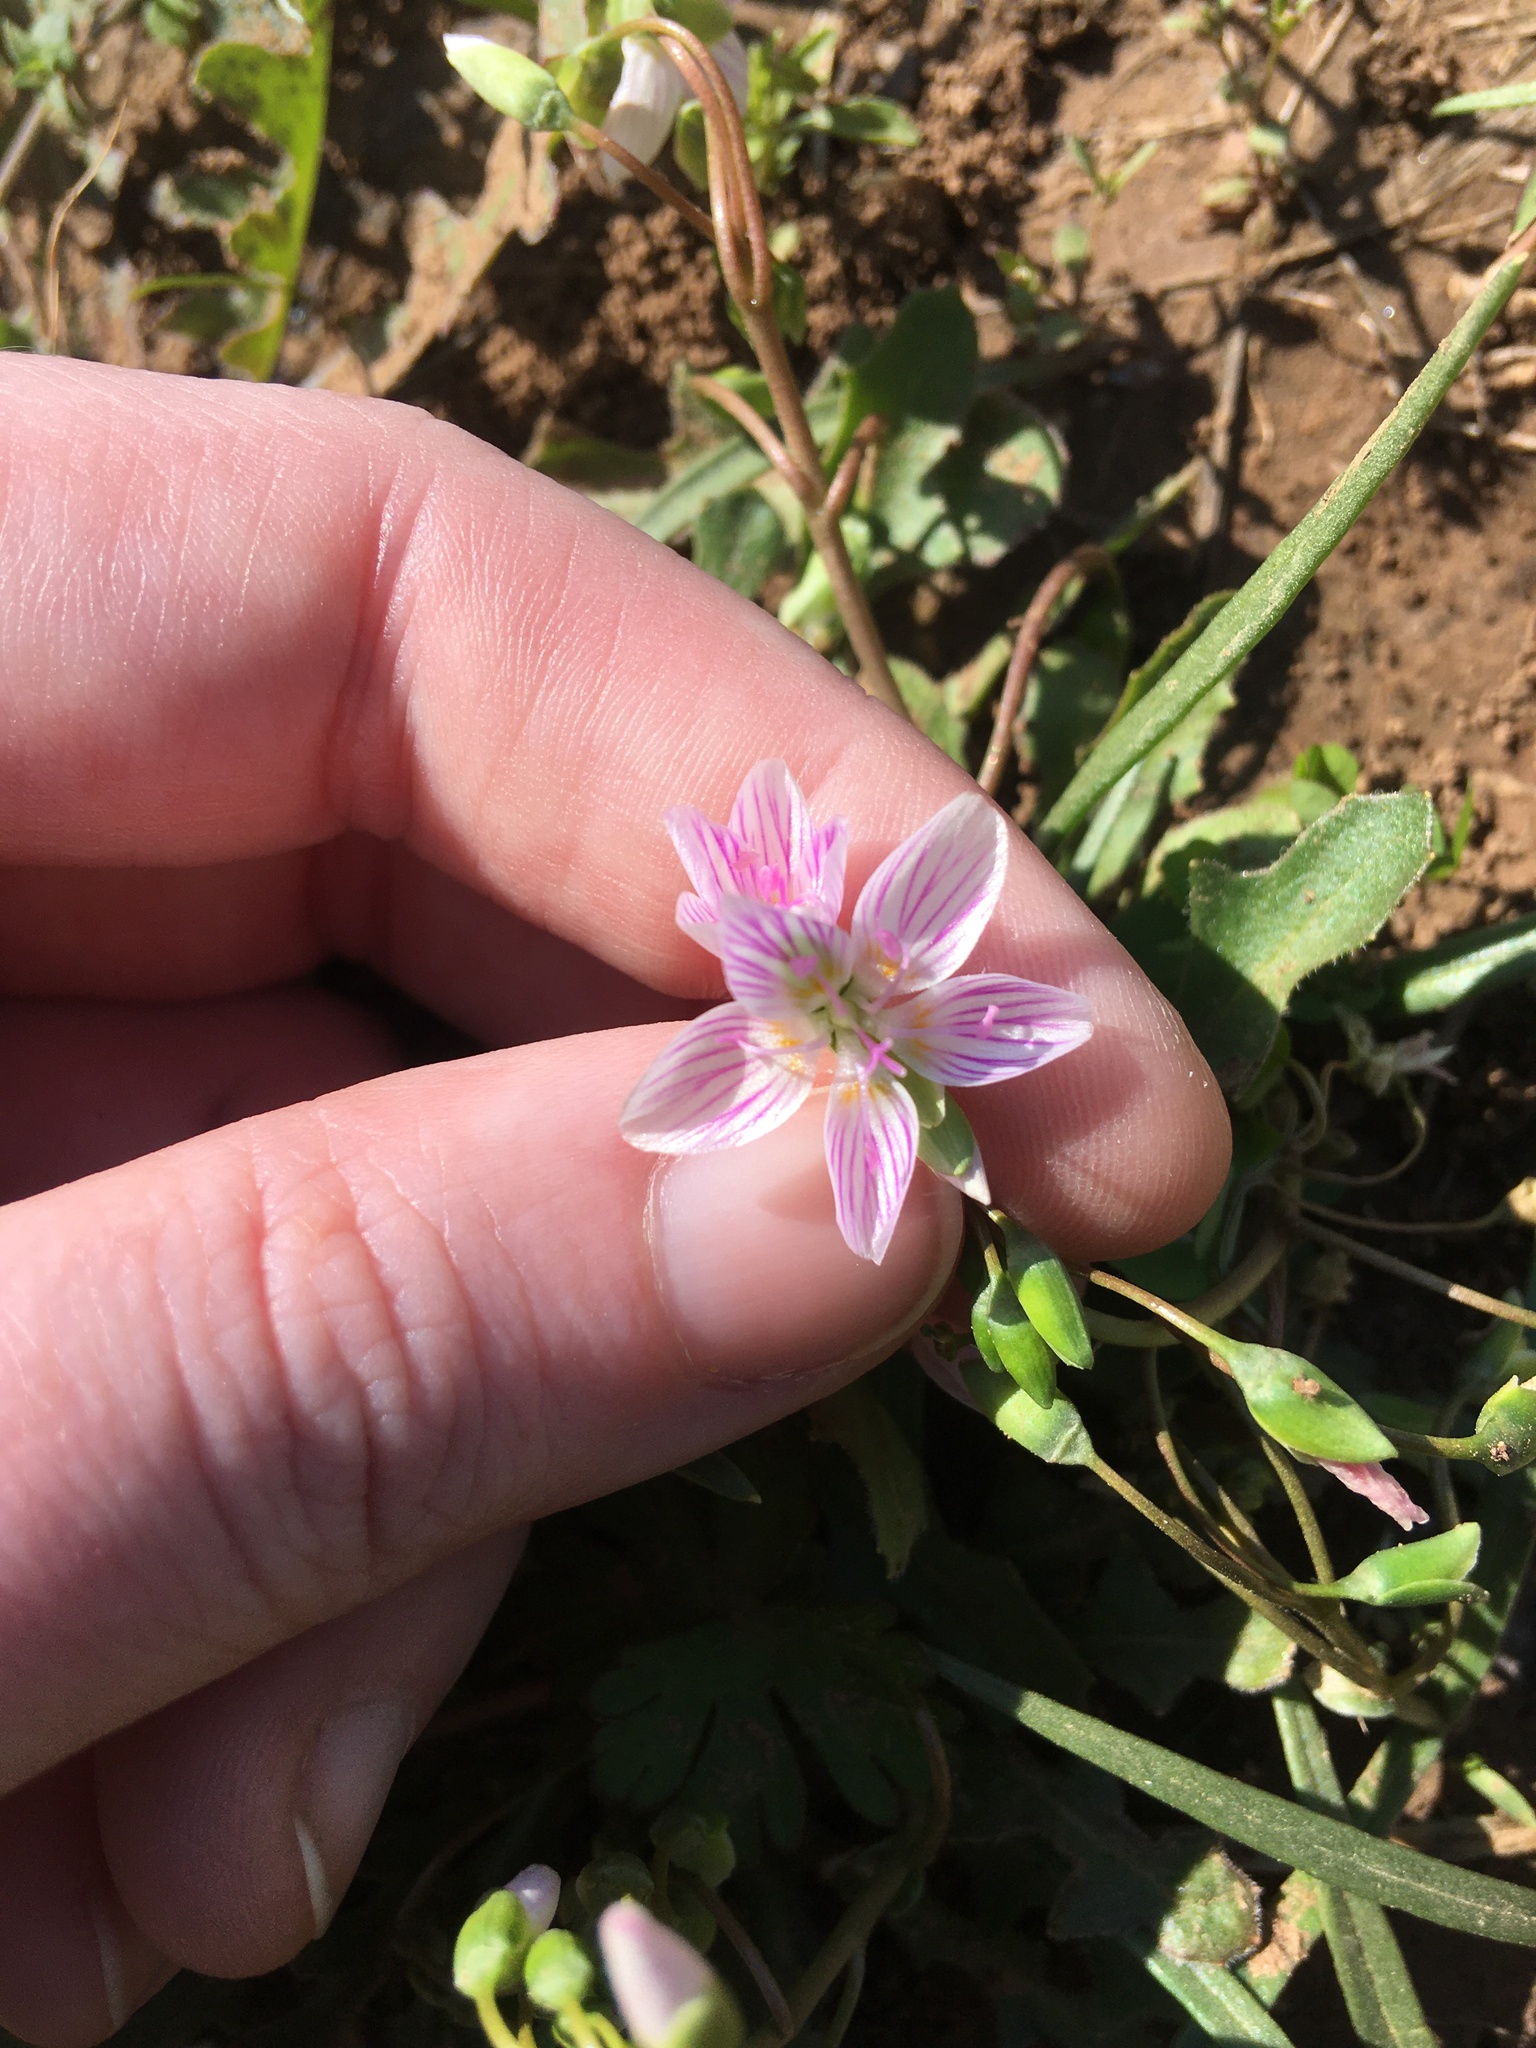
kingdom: Plantae
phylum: Tracheophyta
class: Magnoliopsida
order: Caryophyllales
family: Montiaceae
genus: Claytonia
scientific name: Claytonia virginica
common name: Virginia springbeauty
